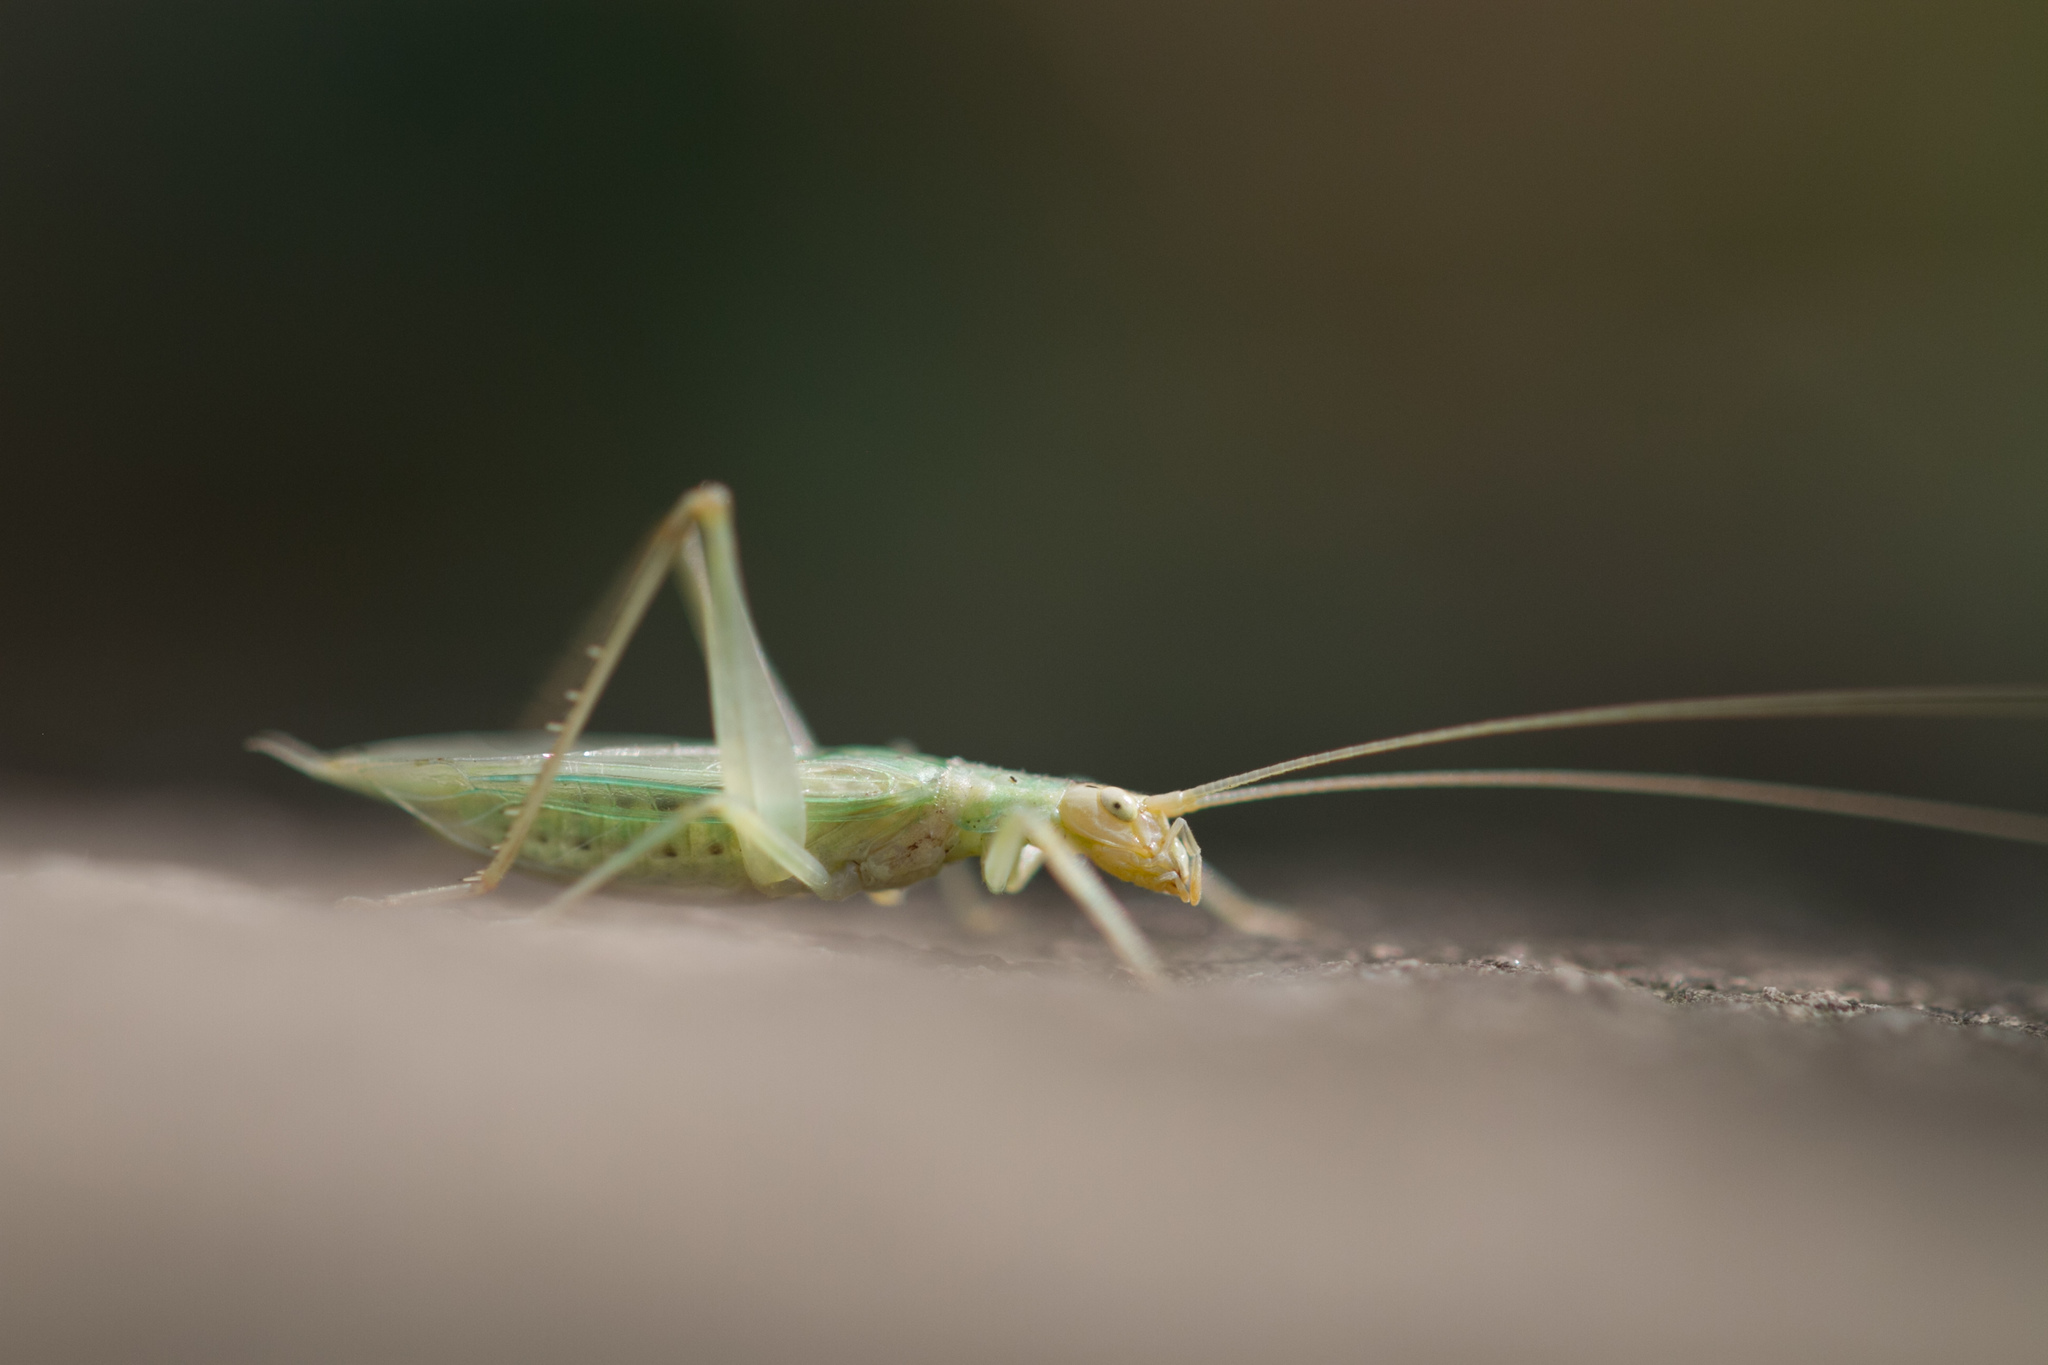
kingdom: Animalia
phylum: Arthropoda
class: Insecta
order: Orthoptera
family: Gryllidae
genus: Oecanthus
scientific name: Oecanthus pellucens
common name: Tree-cricket
